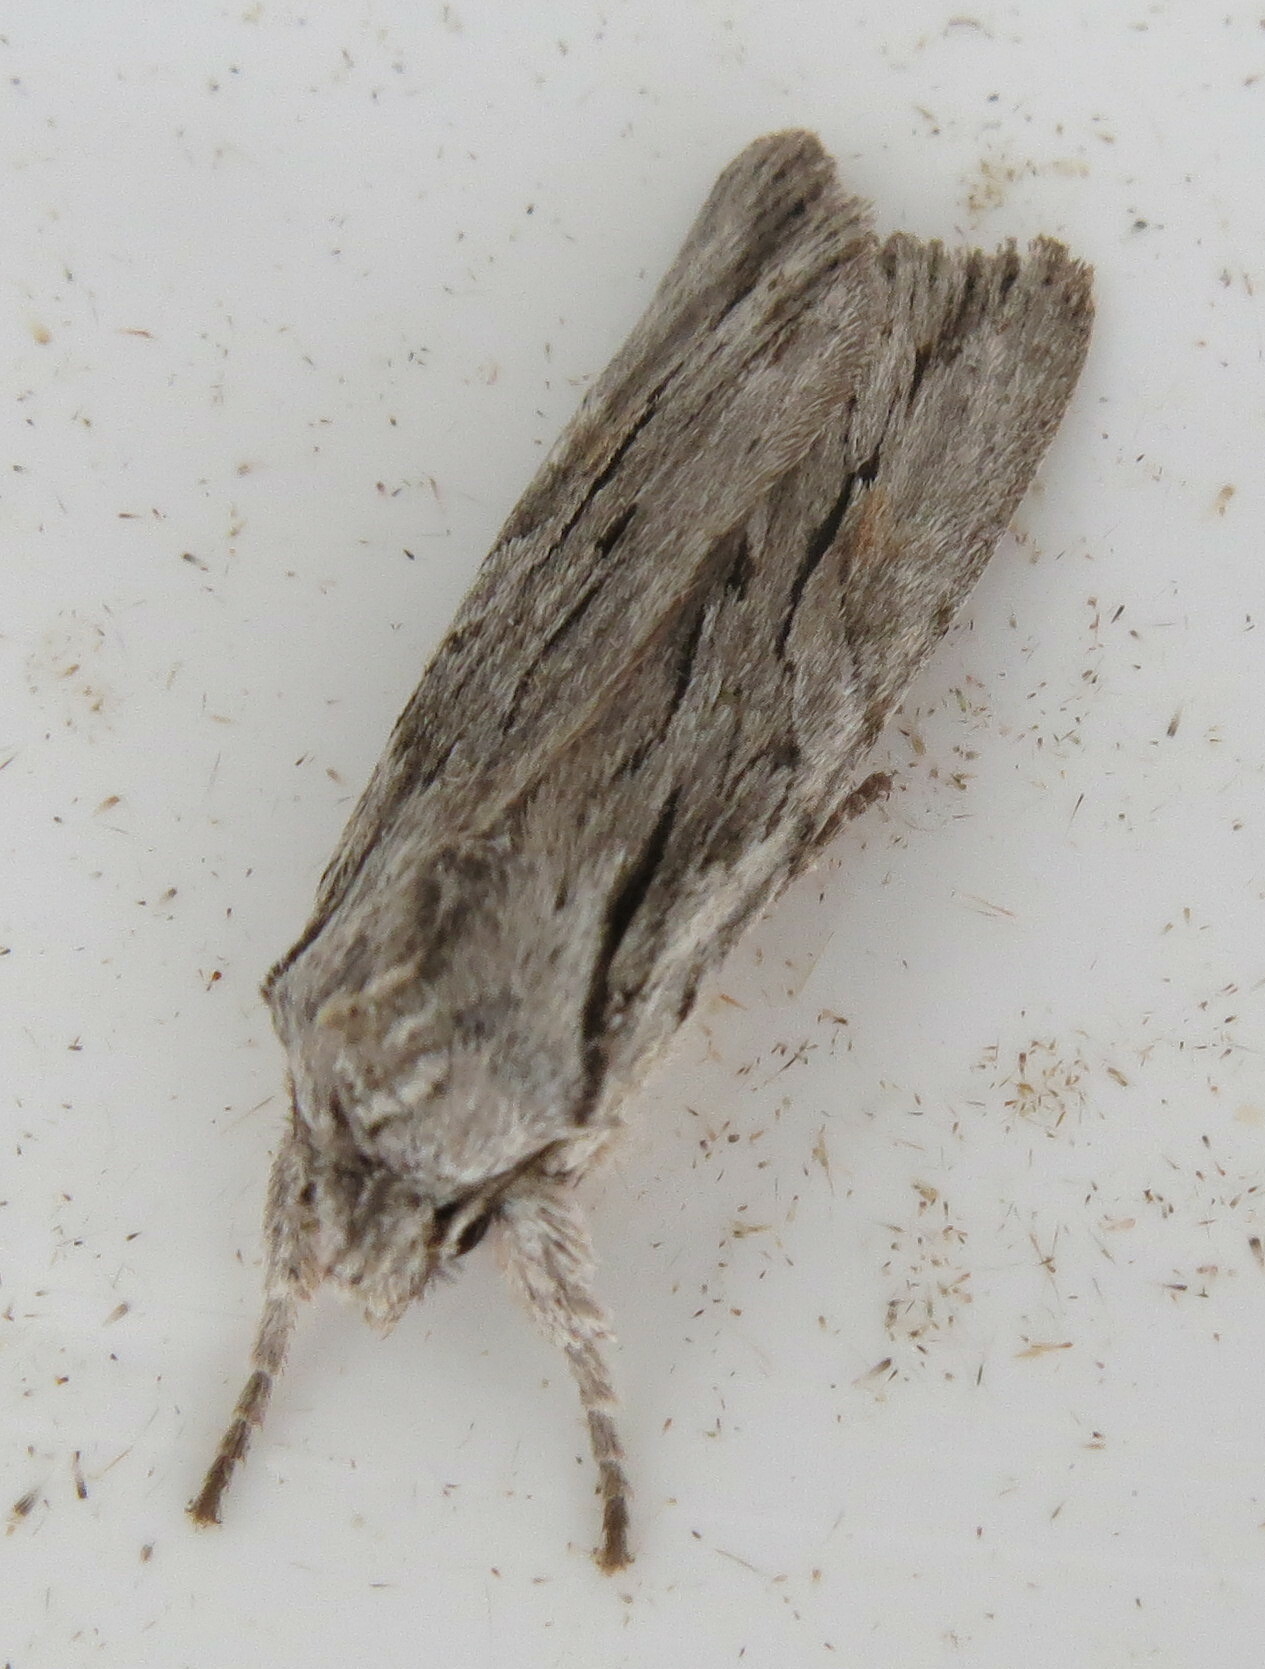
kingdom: Animalia
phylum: Arthropoda
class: Insecta
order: Lepidoptera
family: Noctuidae
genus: Lithophane
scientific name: Lithophane leautieri
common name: Blair's shoulder-knot
